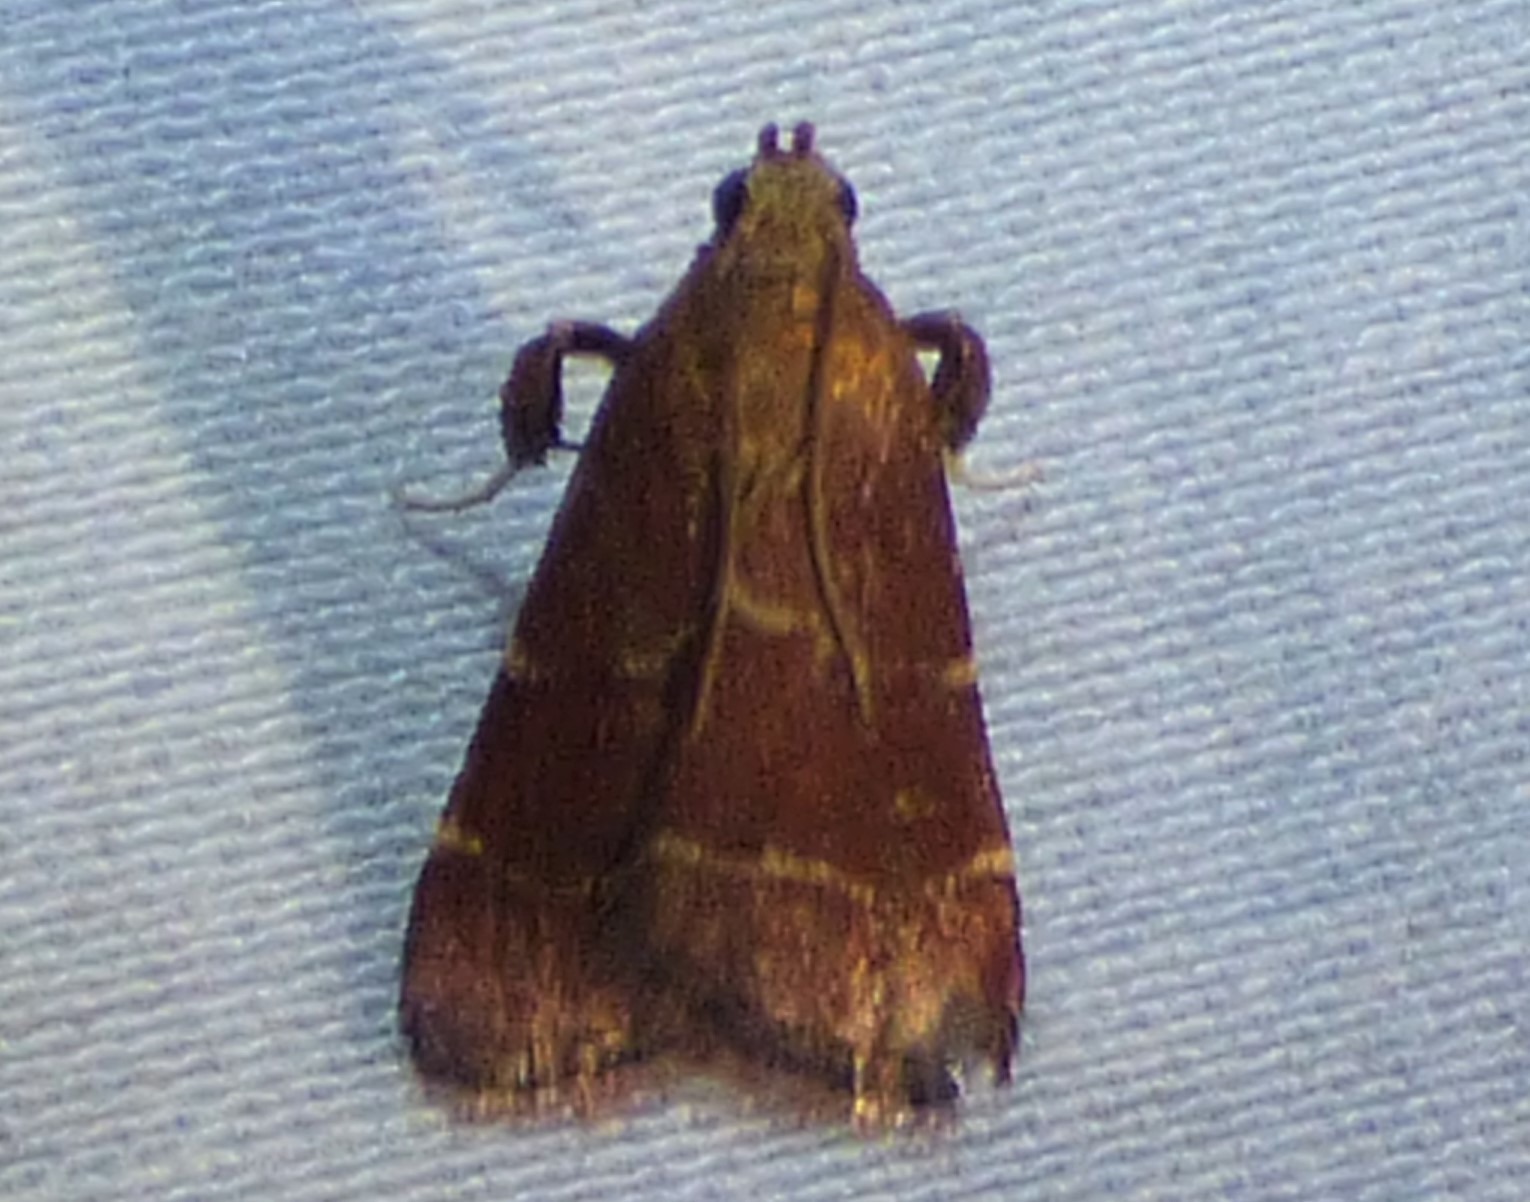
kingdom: Animalia
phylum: Arthropoda
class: Insecta
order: Lepidoptera
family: Pyralidae
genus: Arta
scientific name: Arta statalis
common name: Posturing arta moth
